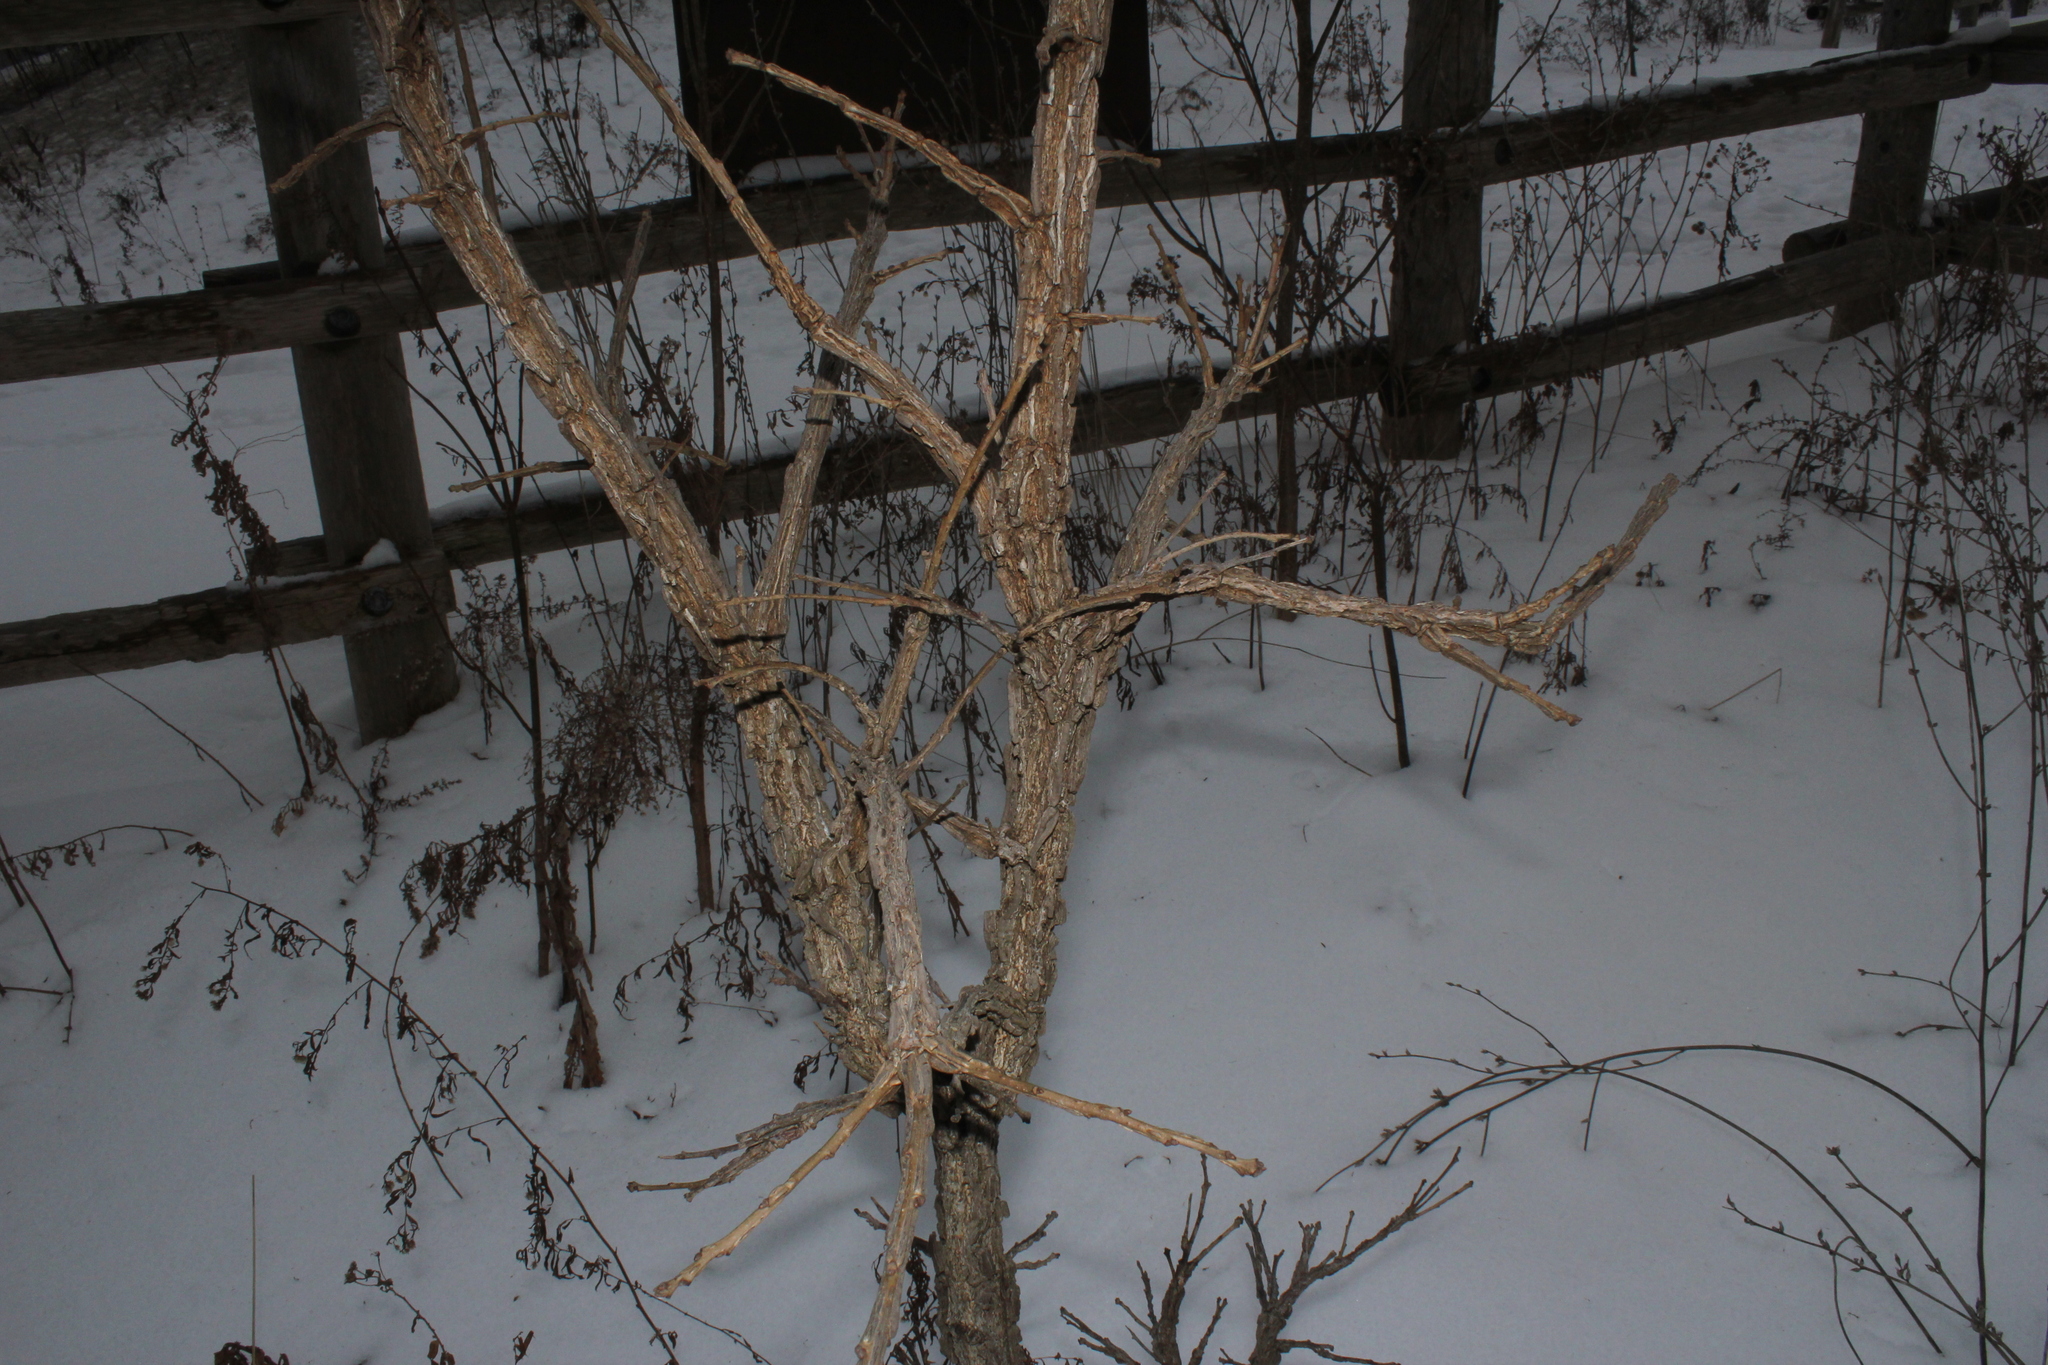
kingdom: Plantae
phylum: Tracheophyta
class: Magnoliopsida
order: Fagales
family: Fagaceae
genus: Quercus
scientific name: Quercus macrocarpa
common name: Bur oak
